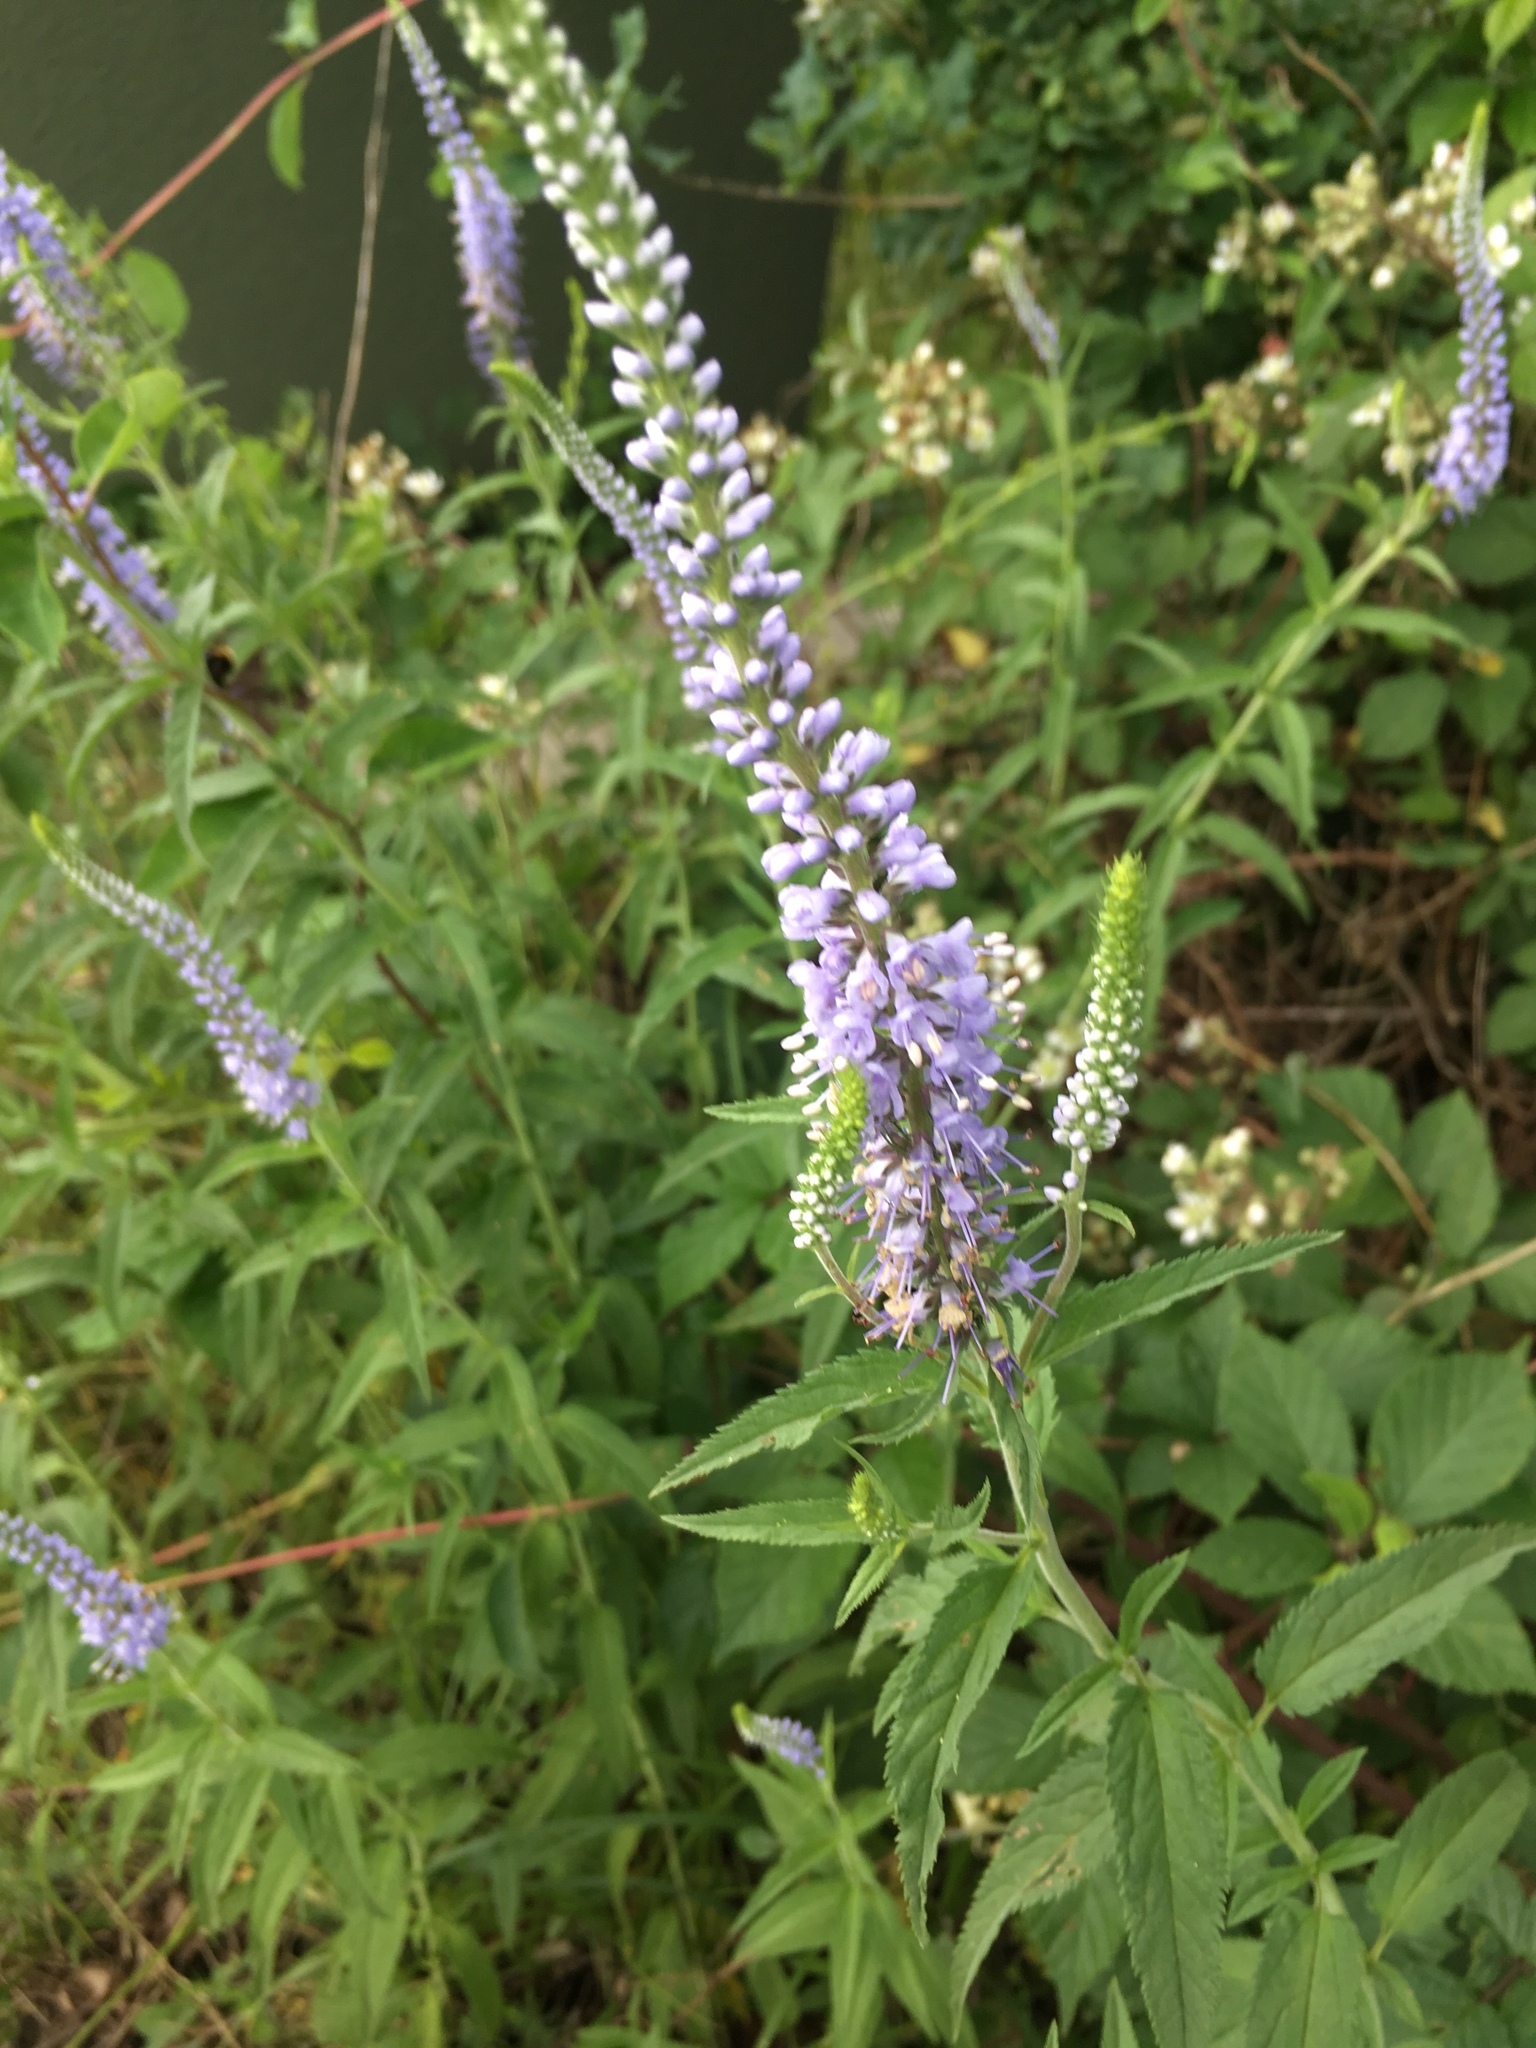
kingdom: Plantae
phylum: Tracheophyta
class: Magnoliopsida
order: Lamiales
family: Plantaginaceae
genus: Veronica
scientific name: Veronica longifolia
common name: Garden speedwell
